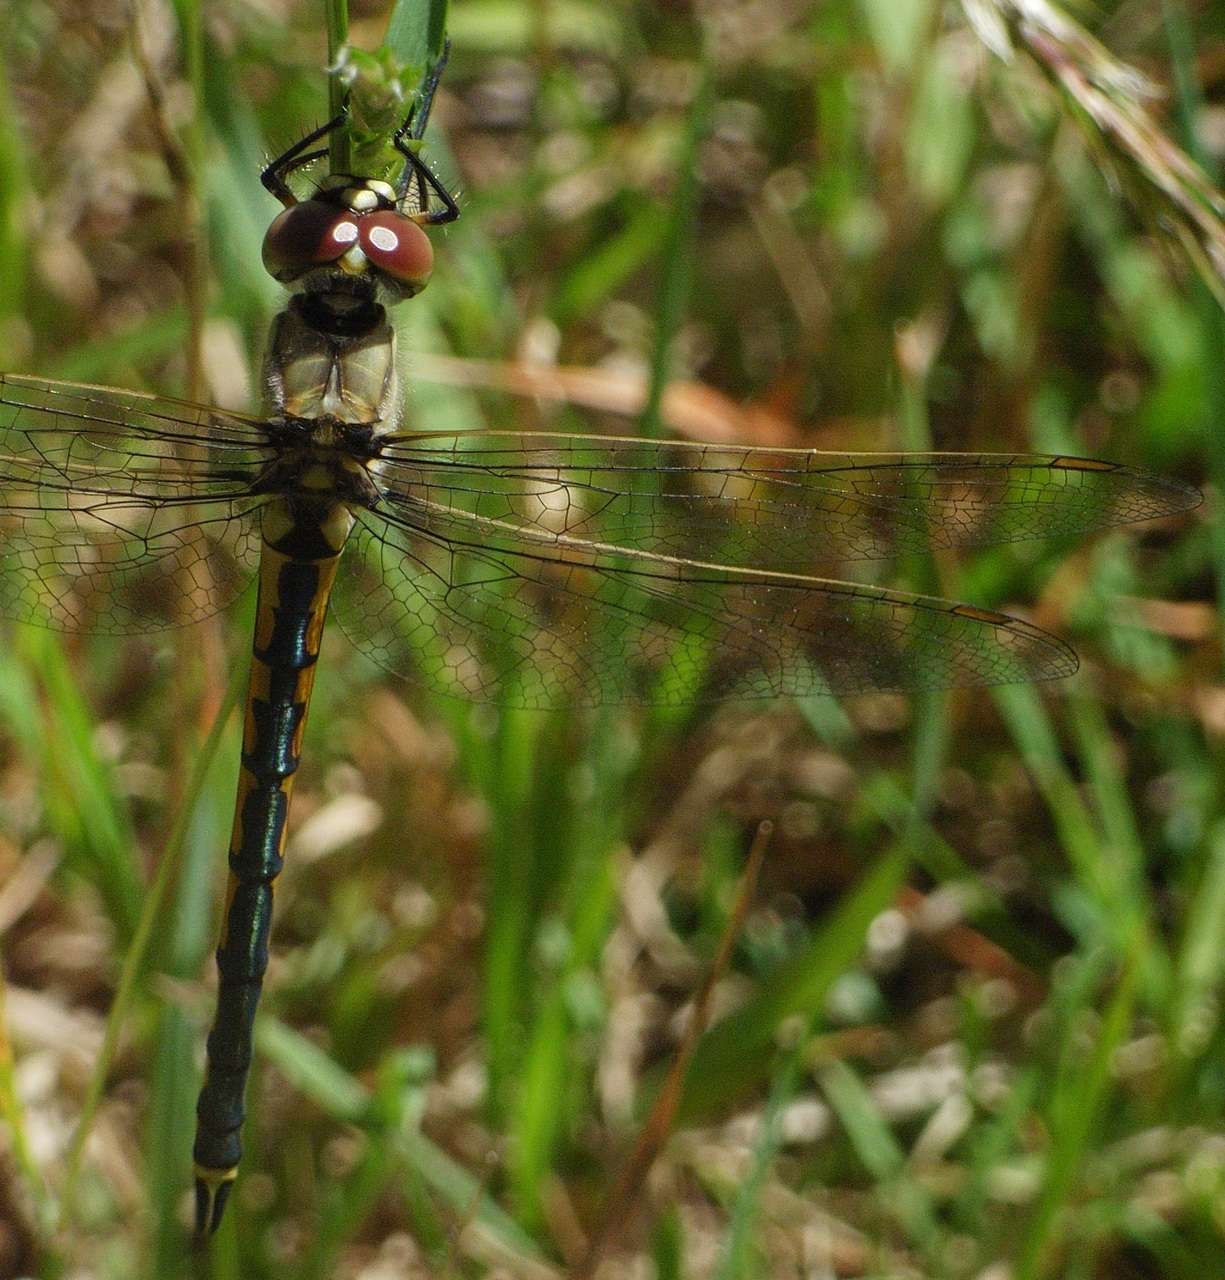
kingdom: Animalia
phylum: Arthropoda
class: Insecta
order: Odonata
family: Corduliidae
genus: Hemicordulia
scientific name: Hemicordulia tau
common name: Tau emerald
